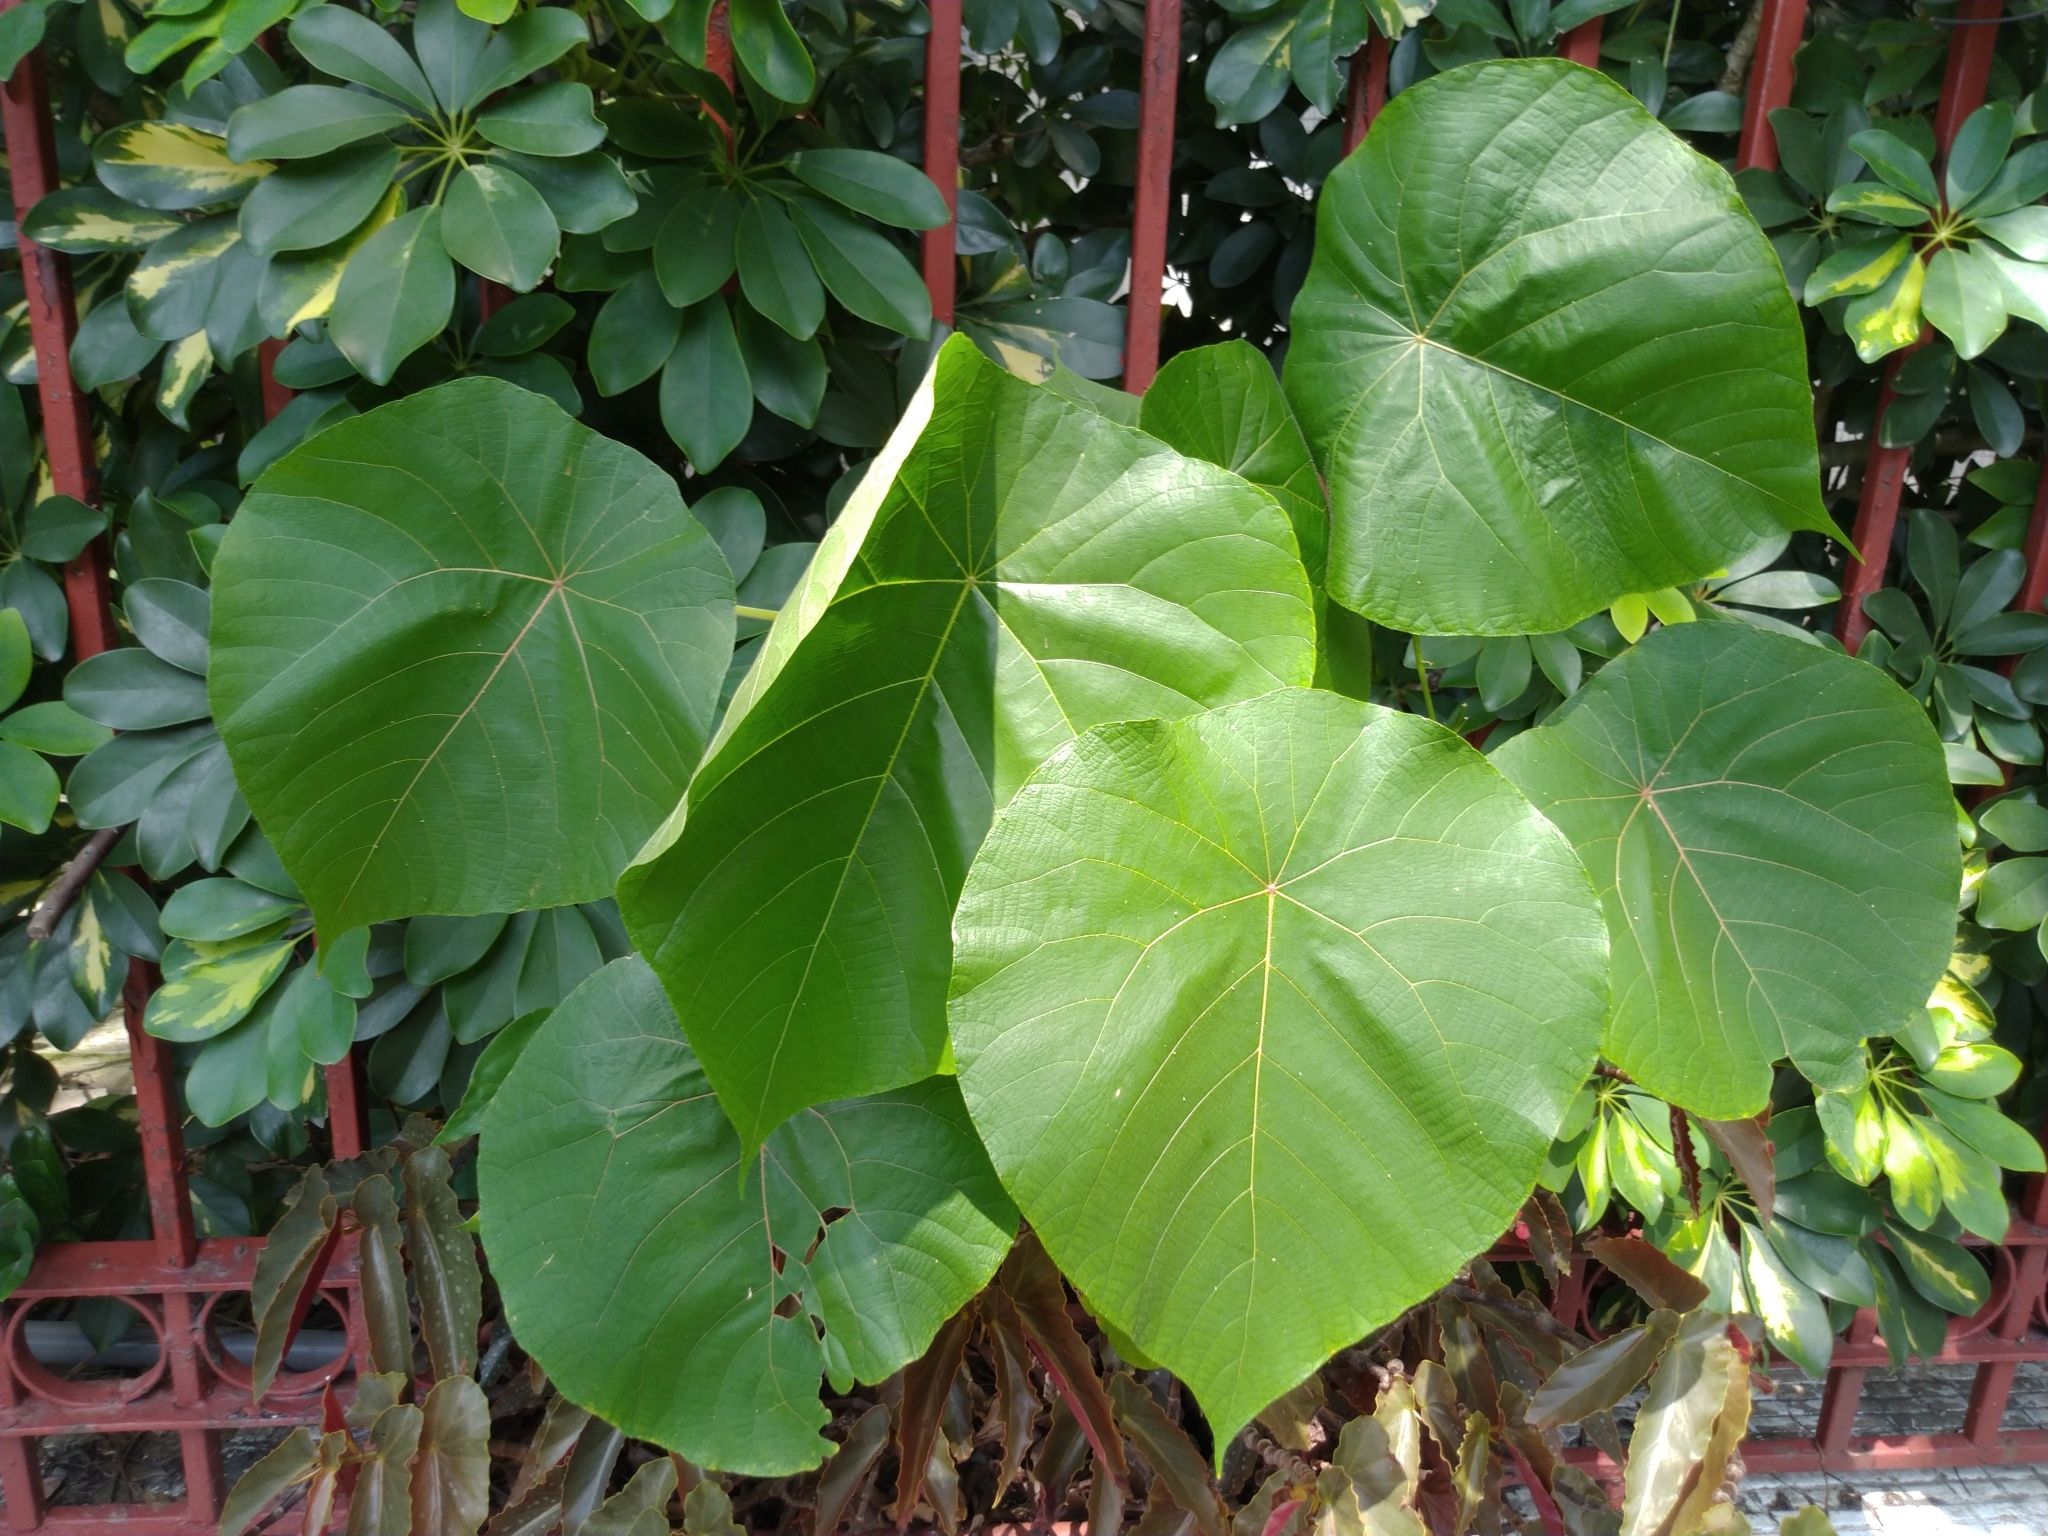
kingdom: Plantae
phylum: Tracheophyta
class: Magnoliopsida
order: Malpighiales
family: Euphorbiaceae
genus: Macaranga
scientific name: Macaranga tanarius
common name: Parasol leaf tree
